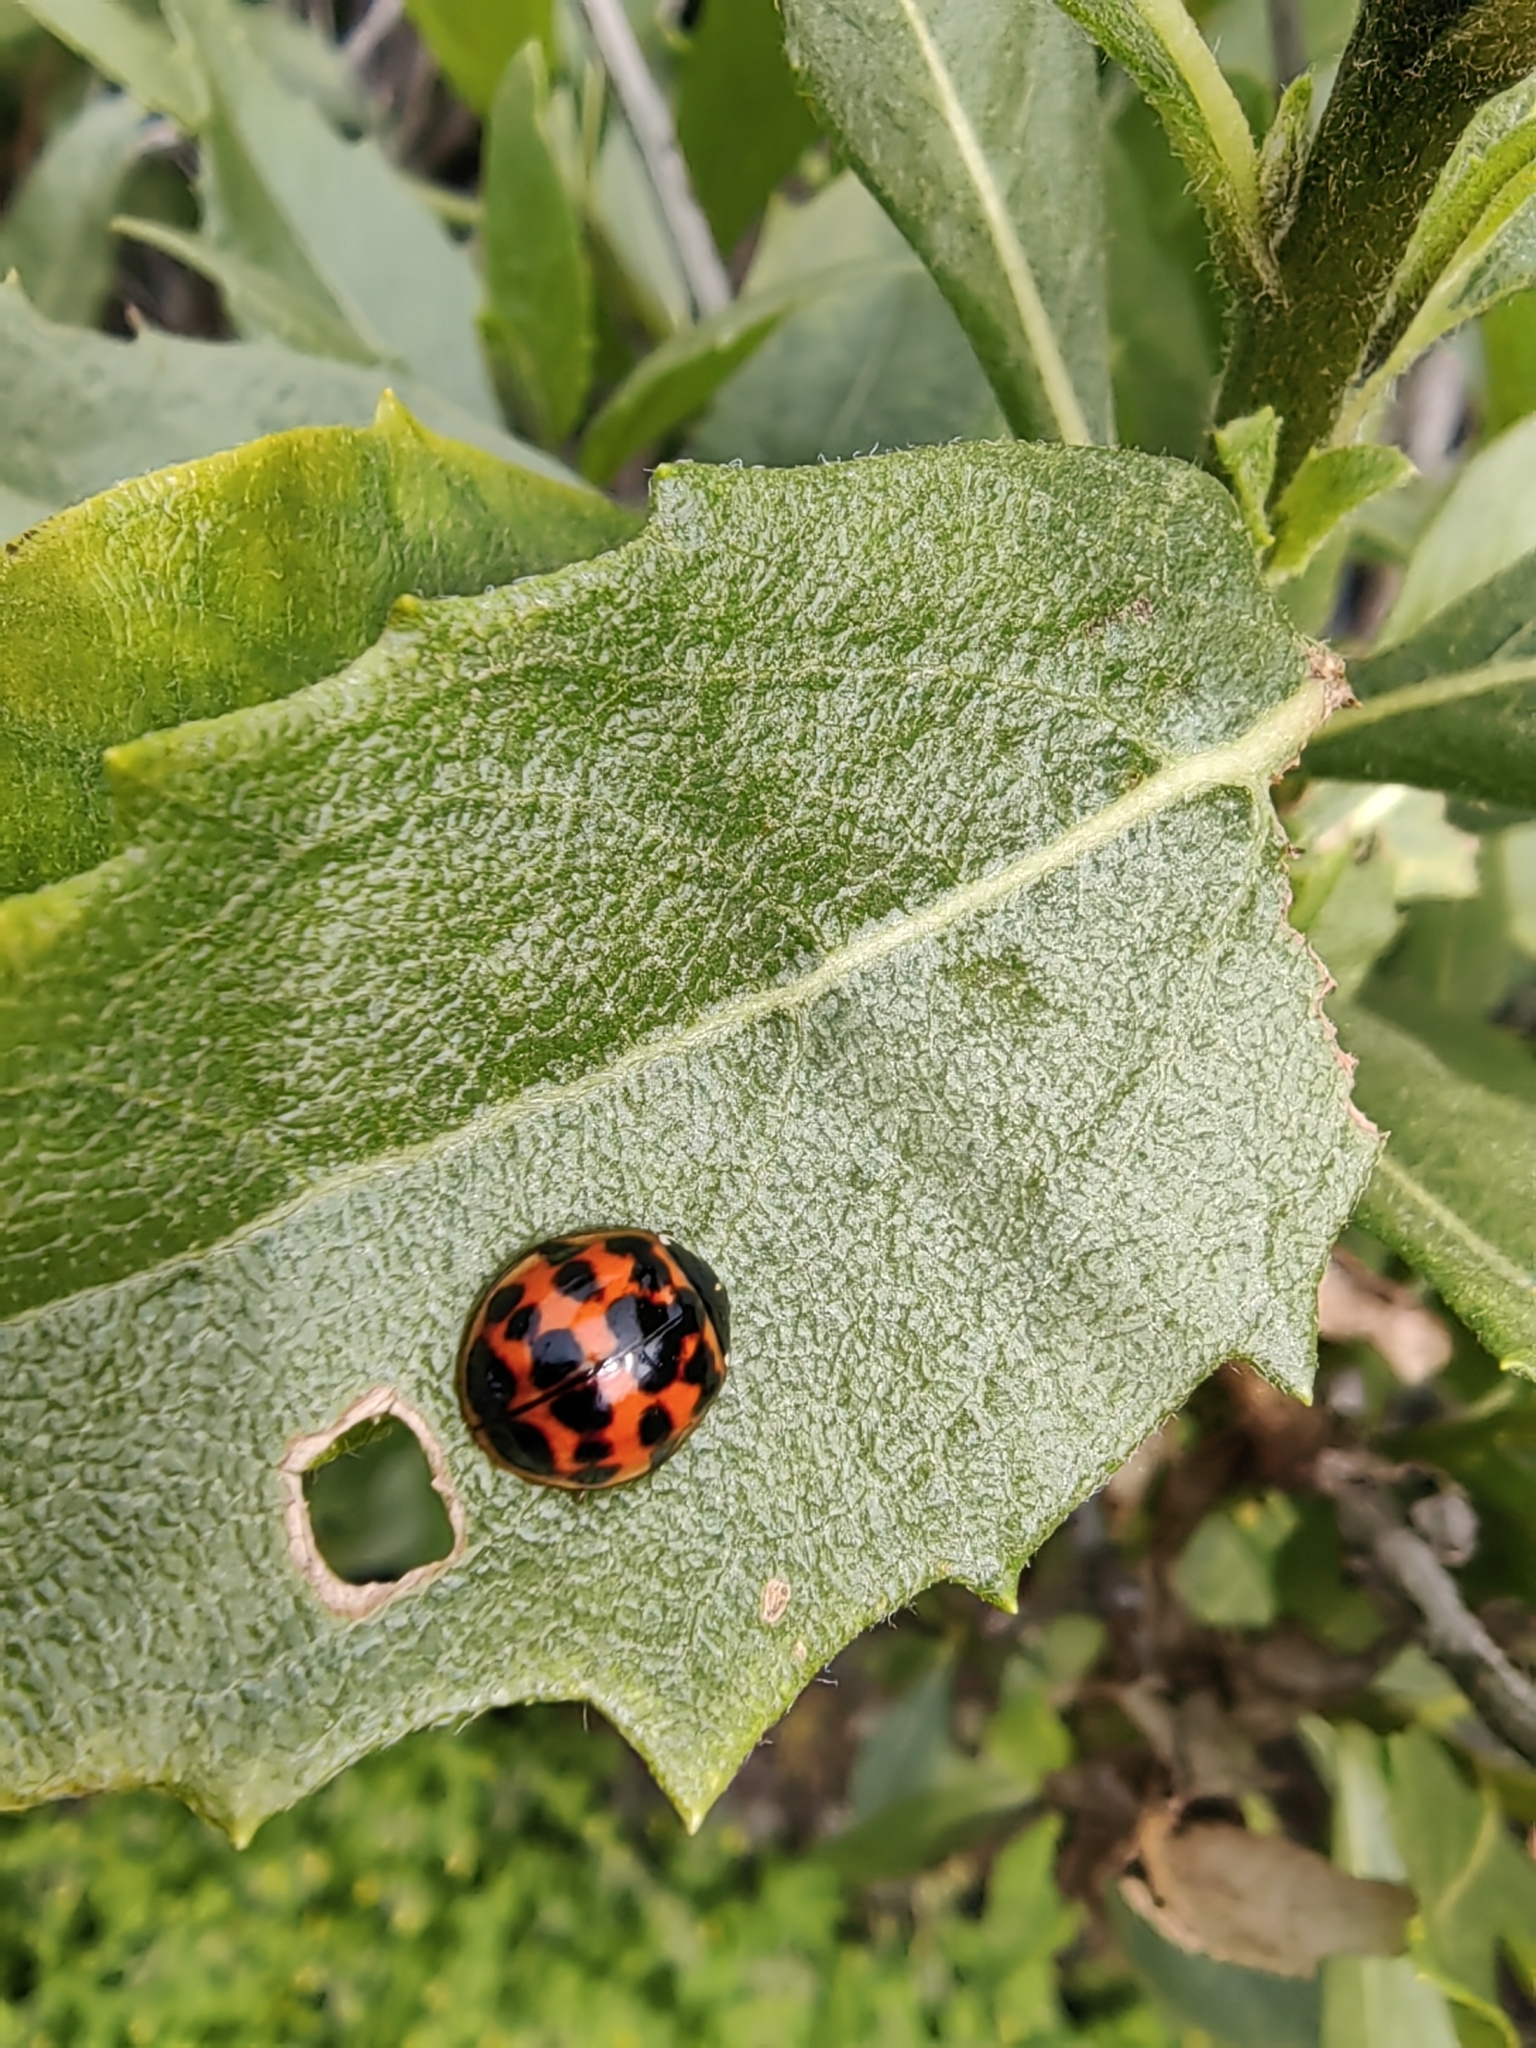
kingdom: Animalia
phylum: Arthropoda
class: Insecta
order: Coleoptera
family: Coccinellidae
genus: Harmonia
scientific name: Harmonia axyridis
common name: Harlequin ladybird
